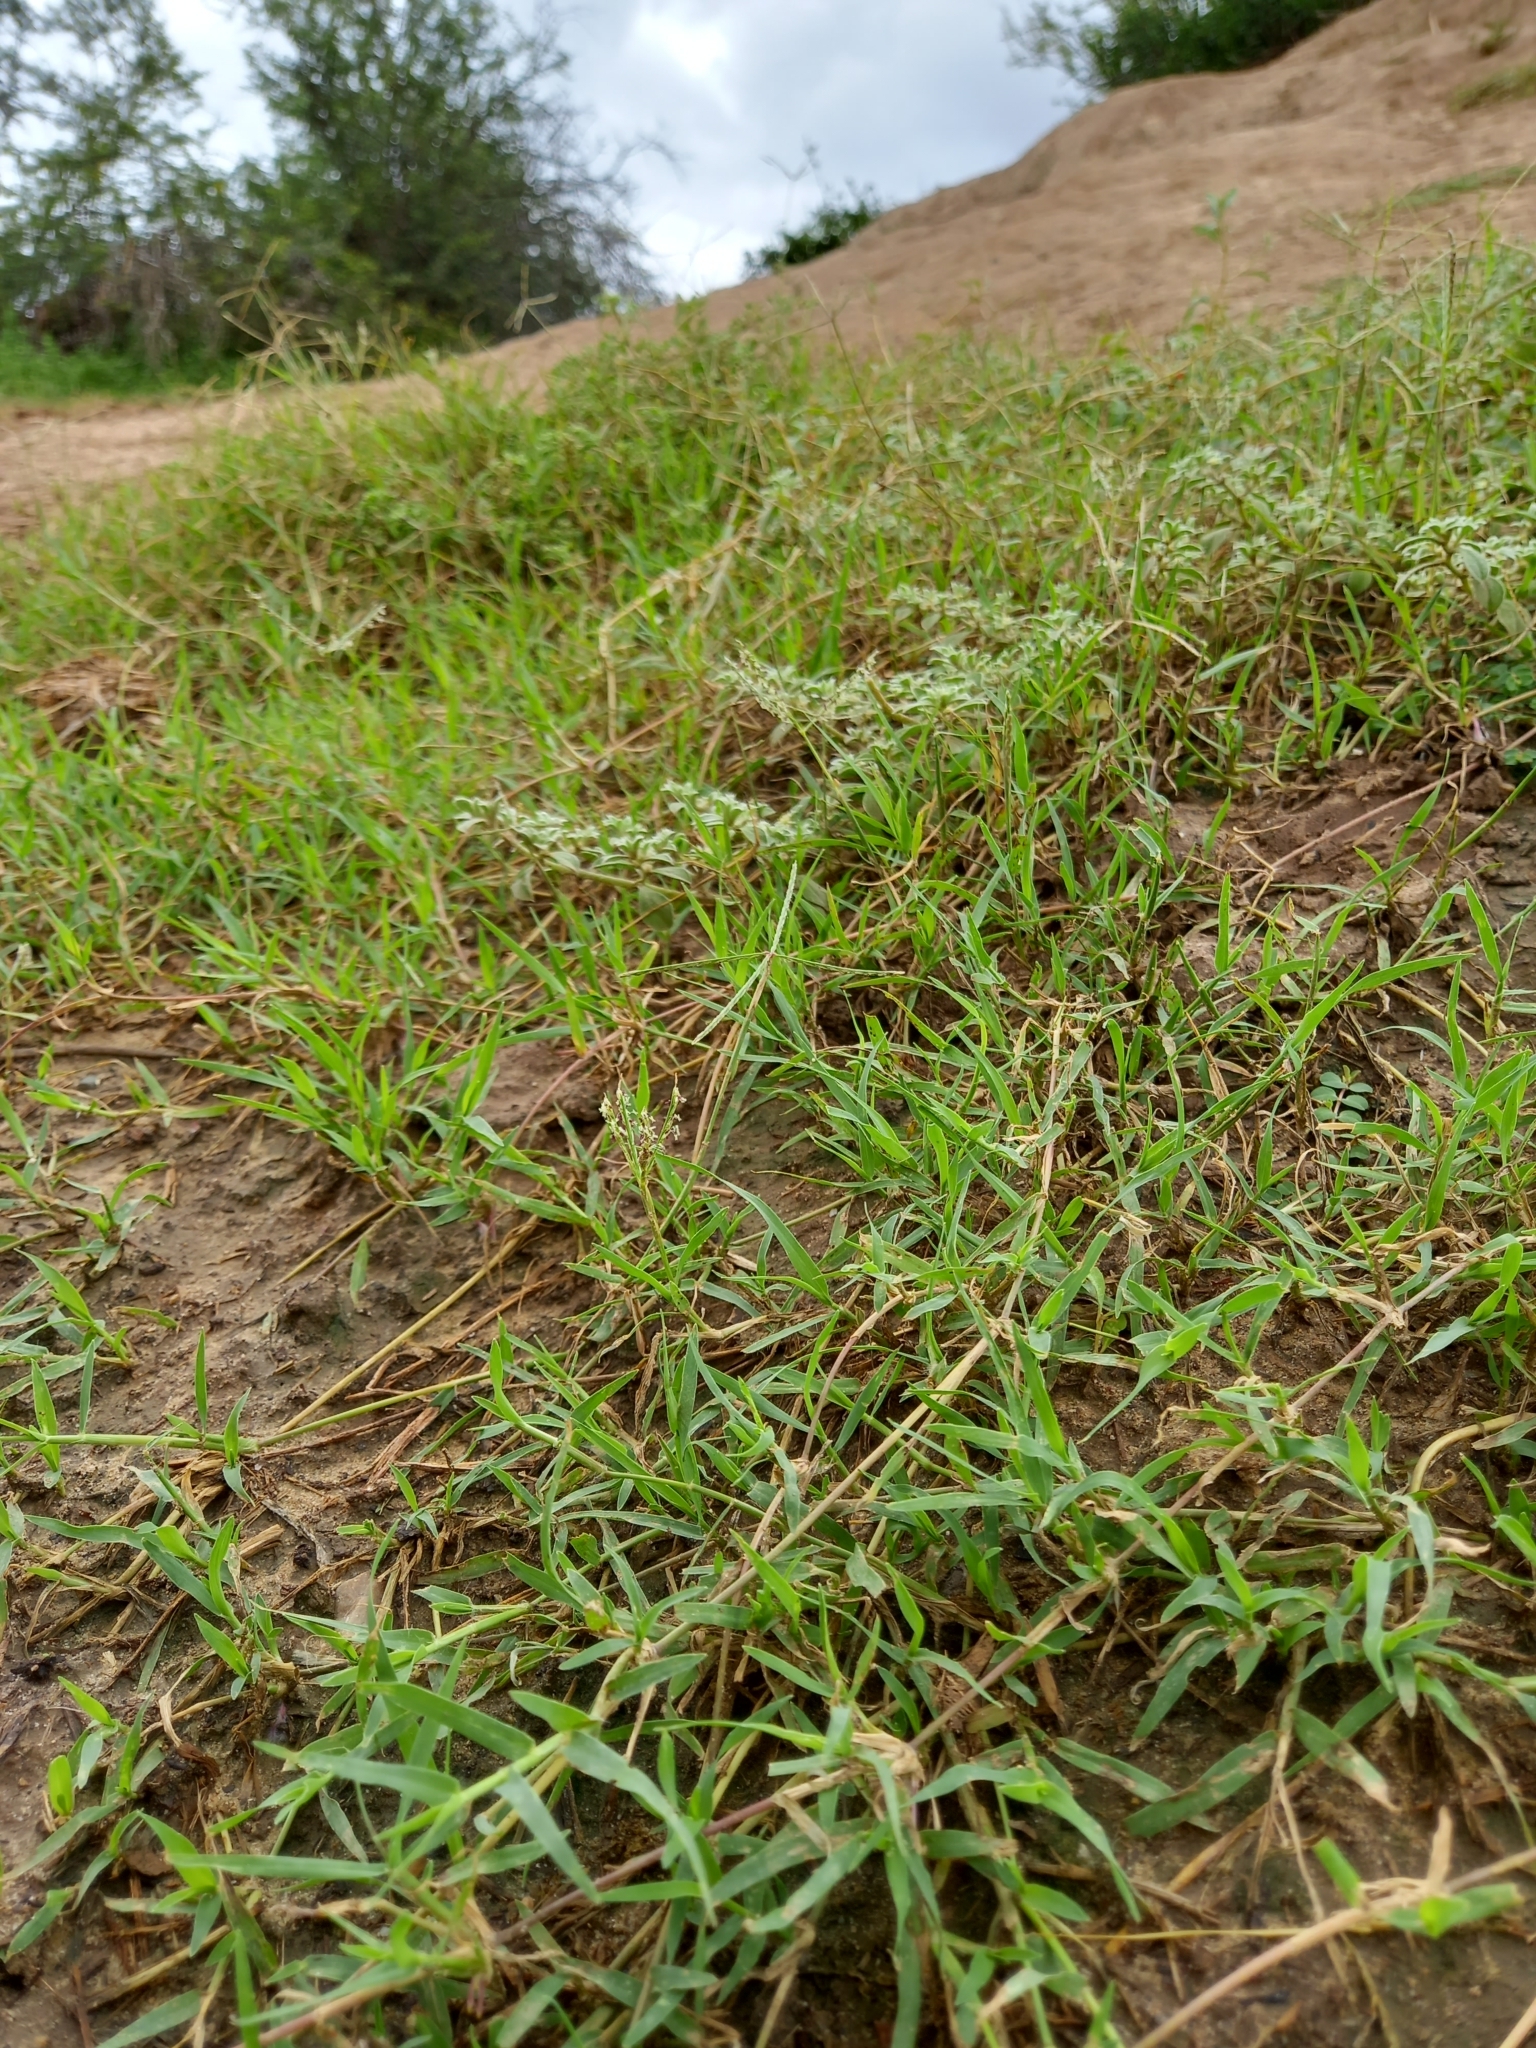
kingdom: Plantae
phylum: Tracheophyta
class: Liliopsida
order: Poales
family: Poaceae
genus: Cynodon
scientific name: Cynodon dactylon
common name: Bermuda grass
